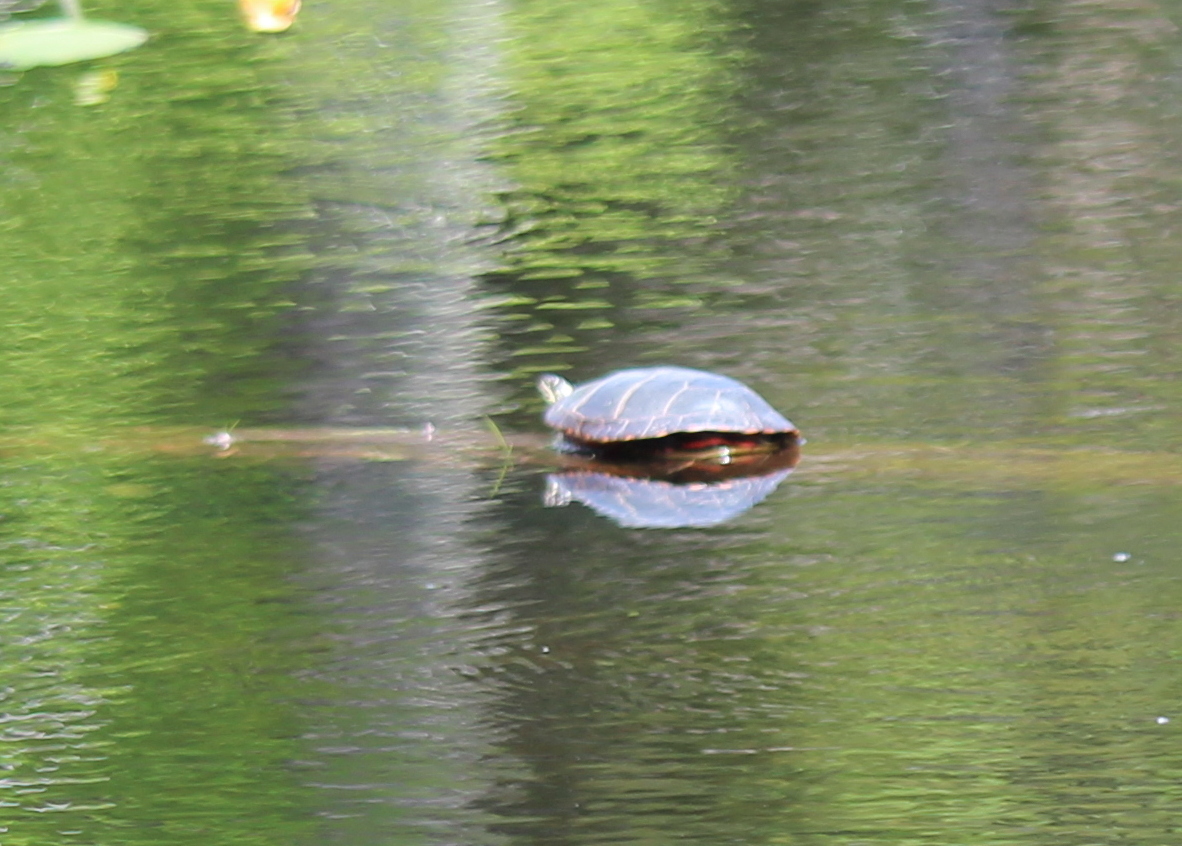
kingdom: Animalia
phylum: Chordata
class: Testudines
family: Emydidae
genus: Chrysemys
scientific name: Chrysemys picta
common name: Painted turtle
